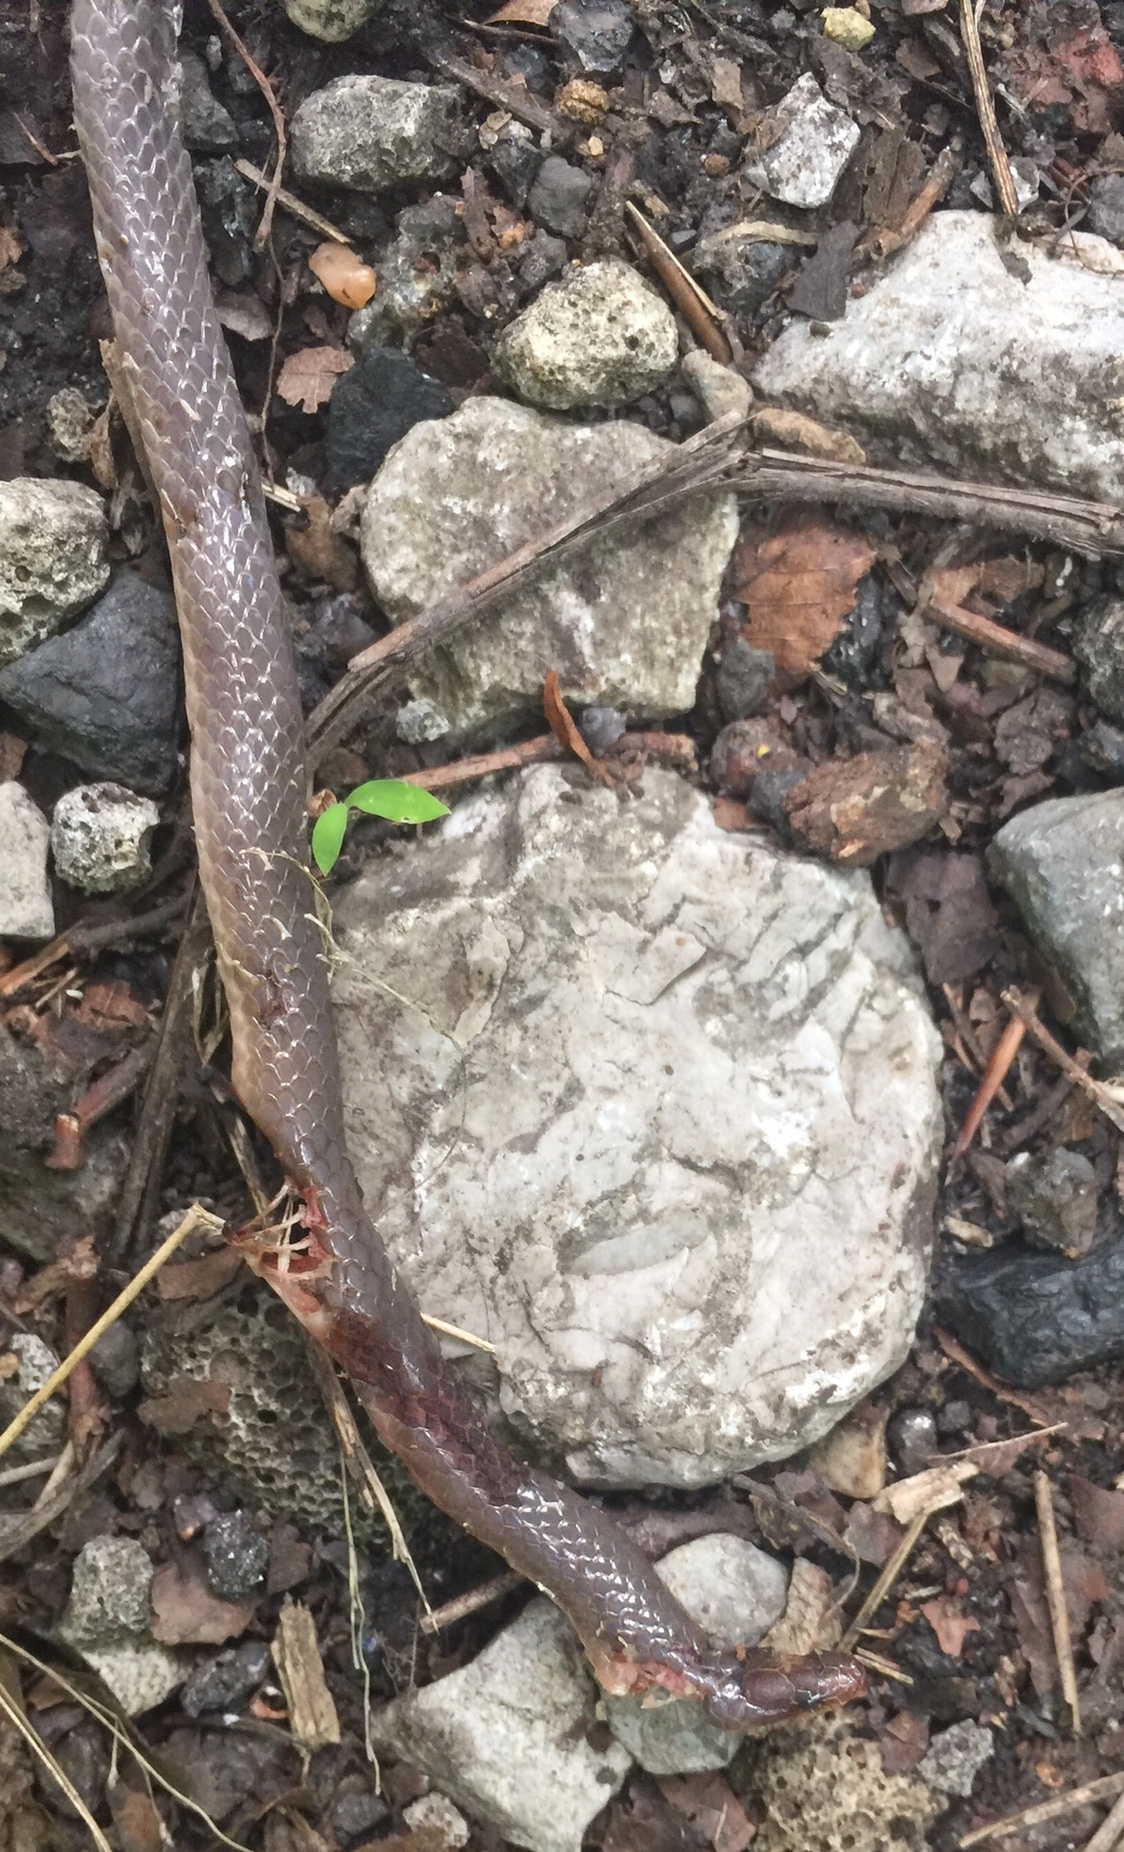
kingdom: Animalia
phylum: Chordata
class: Squamata
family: Colubridae
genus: Carphophis
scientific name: Carphophis amoenus
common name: Eastern worm snake
